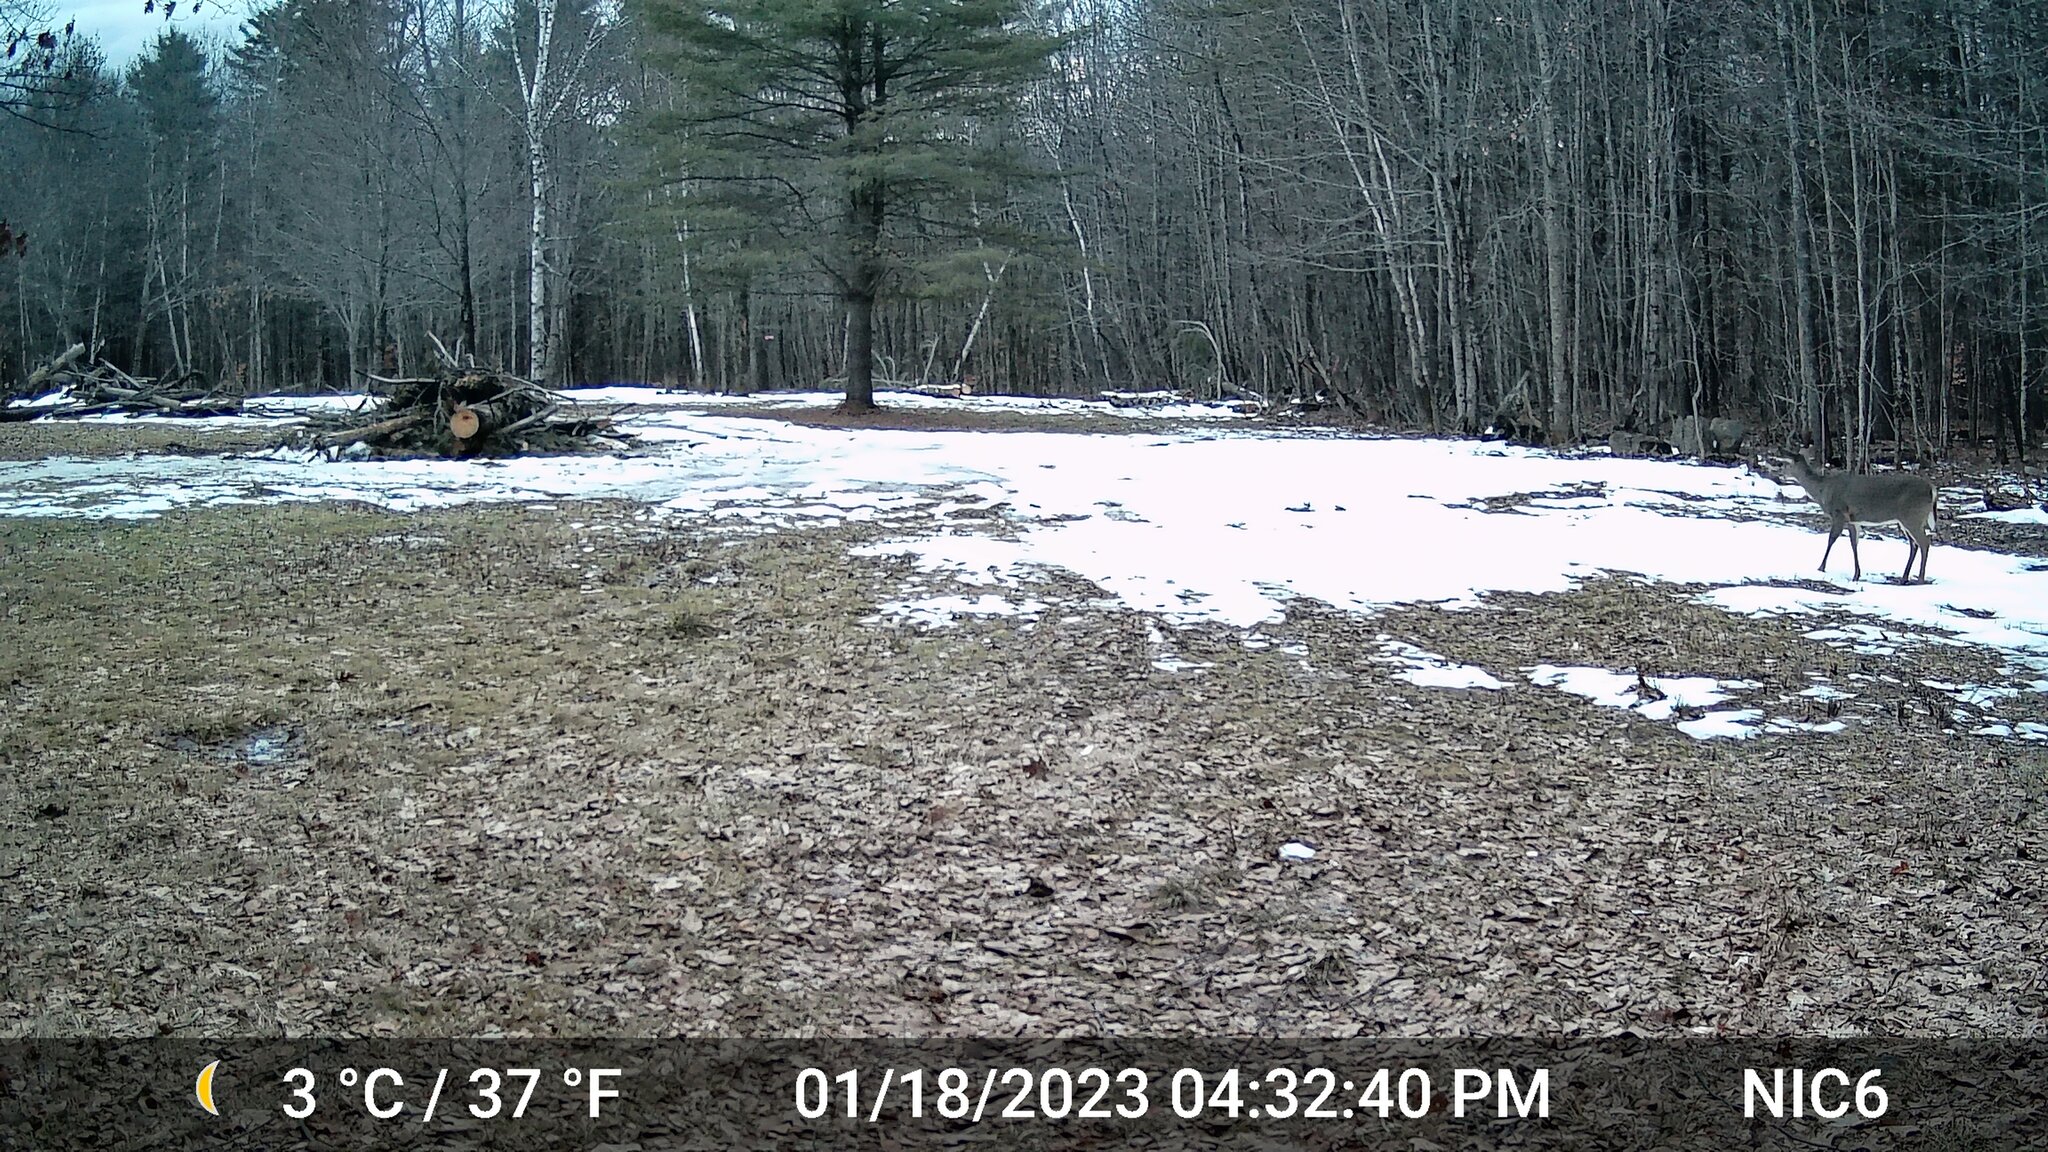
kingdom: Animalia
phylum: Chordata
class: Mammalia
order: Artiodactyla
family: Cervidae
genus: Odocoileus
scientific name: Odocoileus virginianus
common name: White-tailed deer
